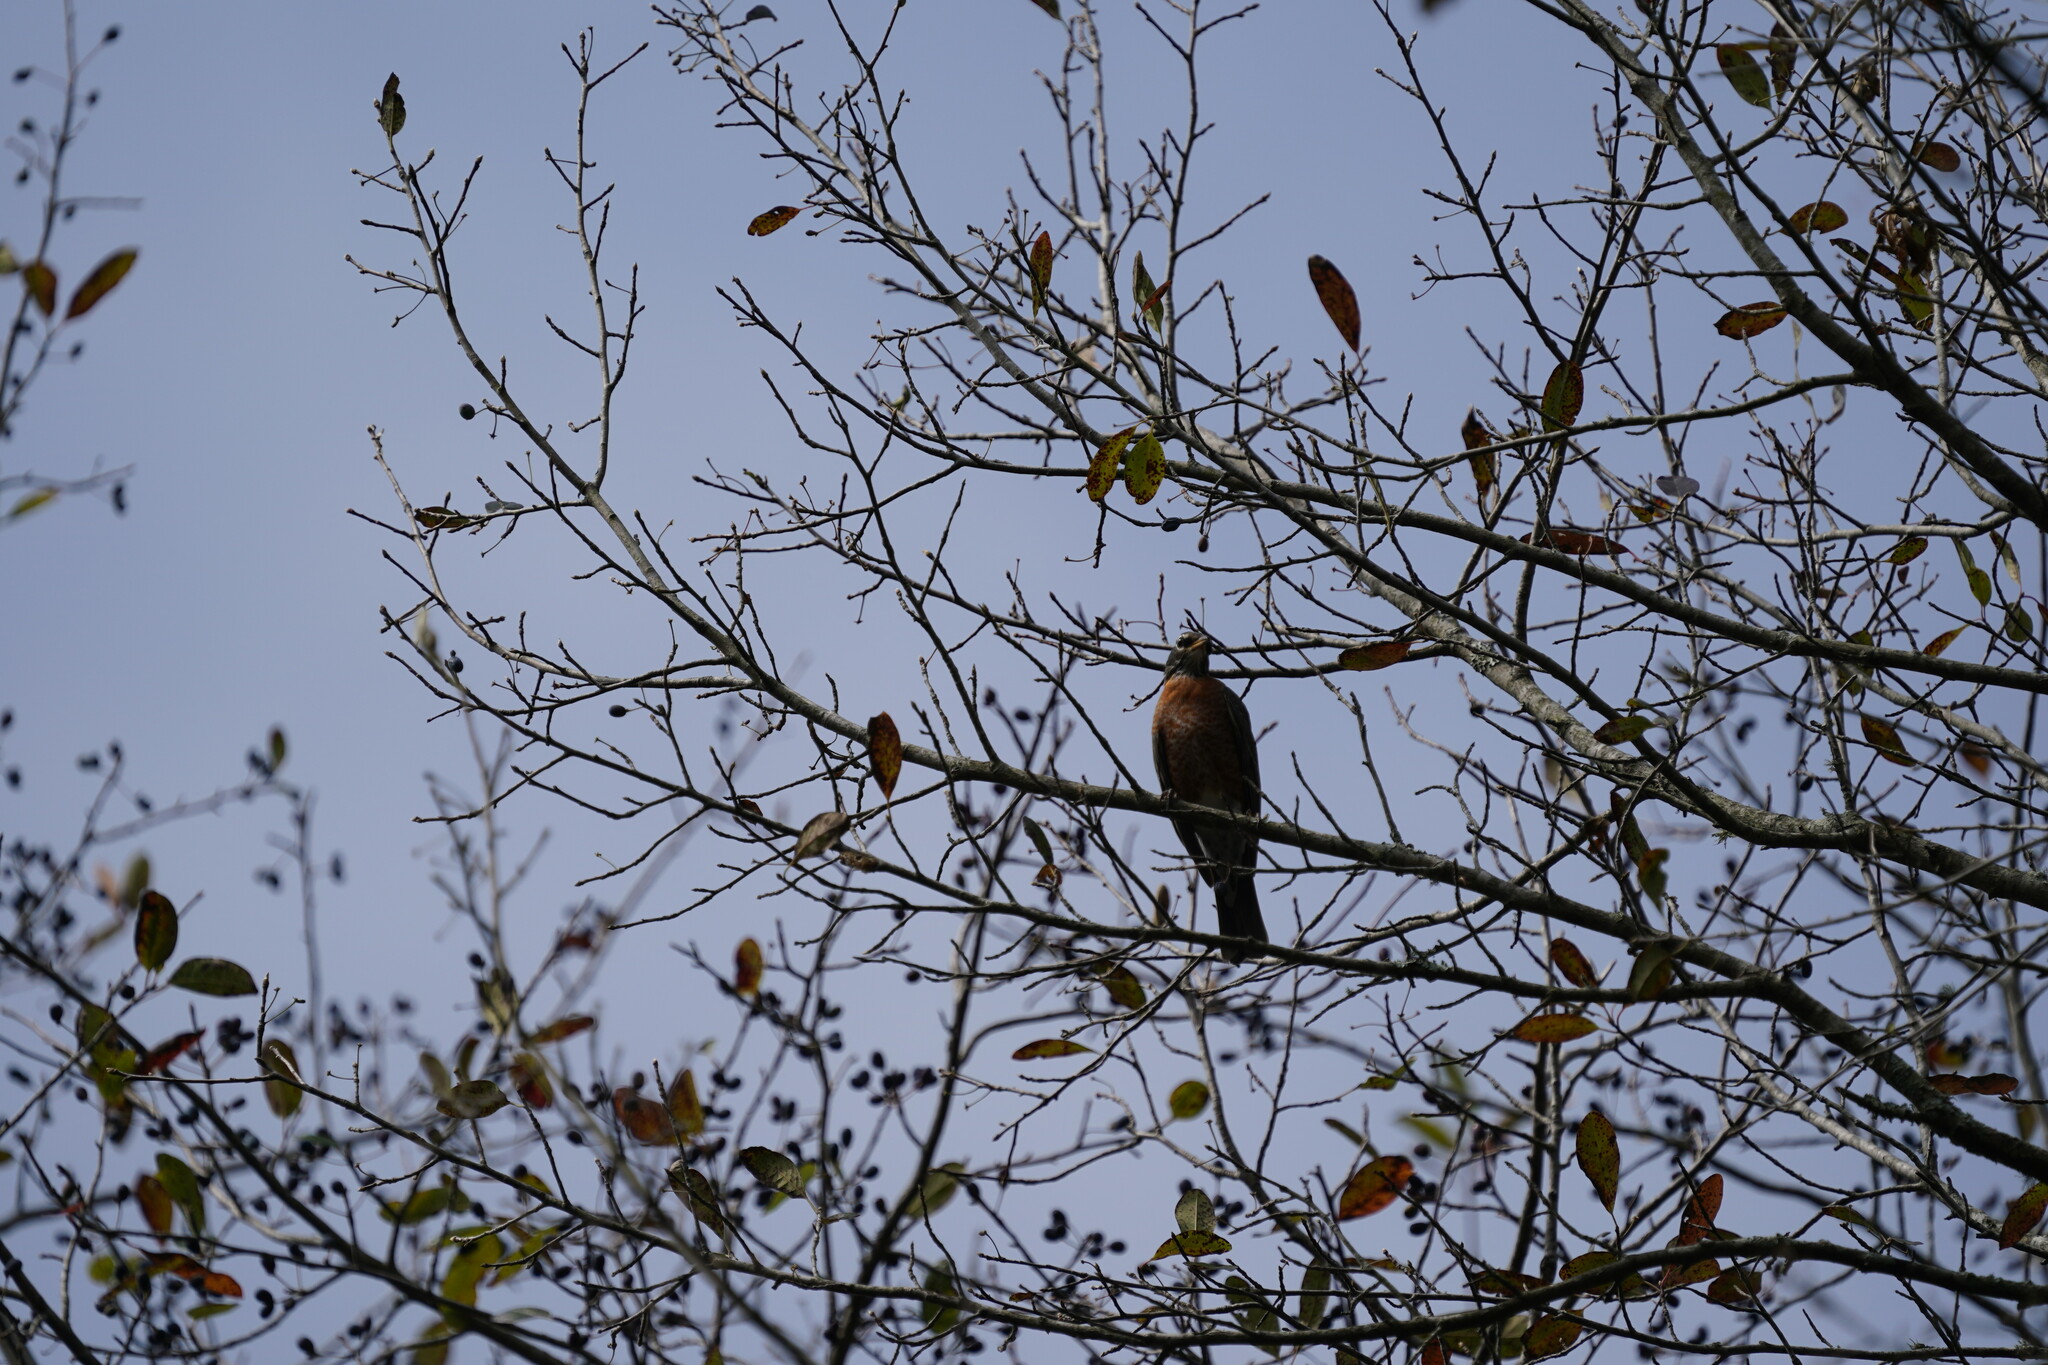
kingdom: Animalia
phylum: Chordata
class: Aves
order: Passeriformes
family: Turdidae
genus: Turdus
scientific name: Turdus migratorius
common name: American robin
